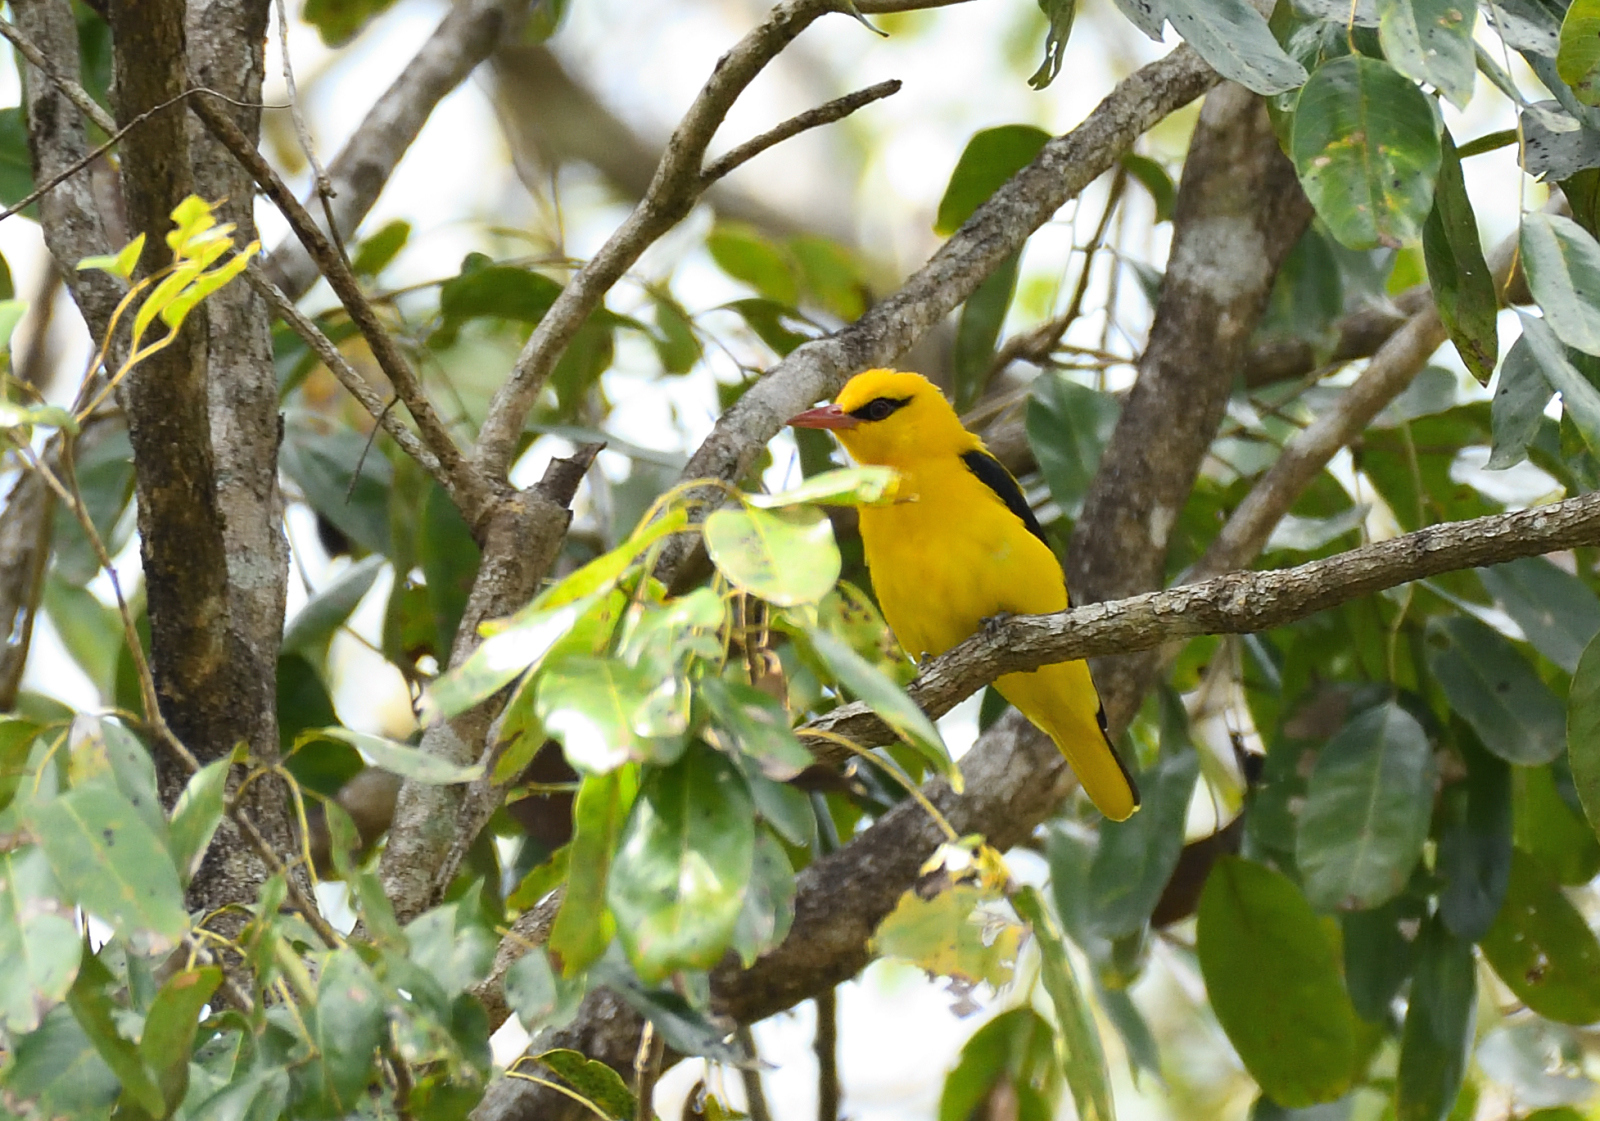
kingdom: Animalia
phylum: Chordata
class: Aves
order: Passeriformes
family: Oriolidae
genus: Oriolus
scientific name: Oriolus kundoo
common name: Indian golden oriole
